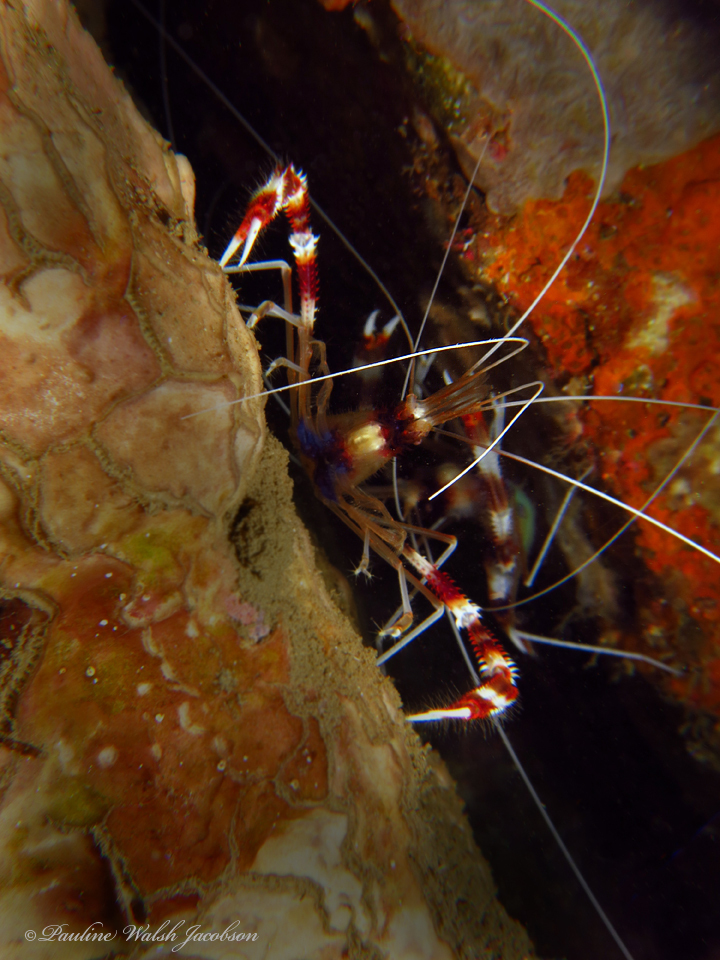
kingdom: Animalia
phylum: Arthropoda
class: Malacostraca
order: Decapoda
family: Stenopodidae
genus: Stenopus
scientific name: Stenopus hispidus
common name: Banded coral shrimp
